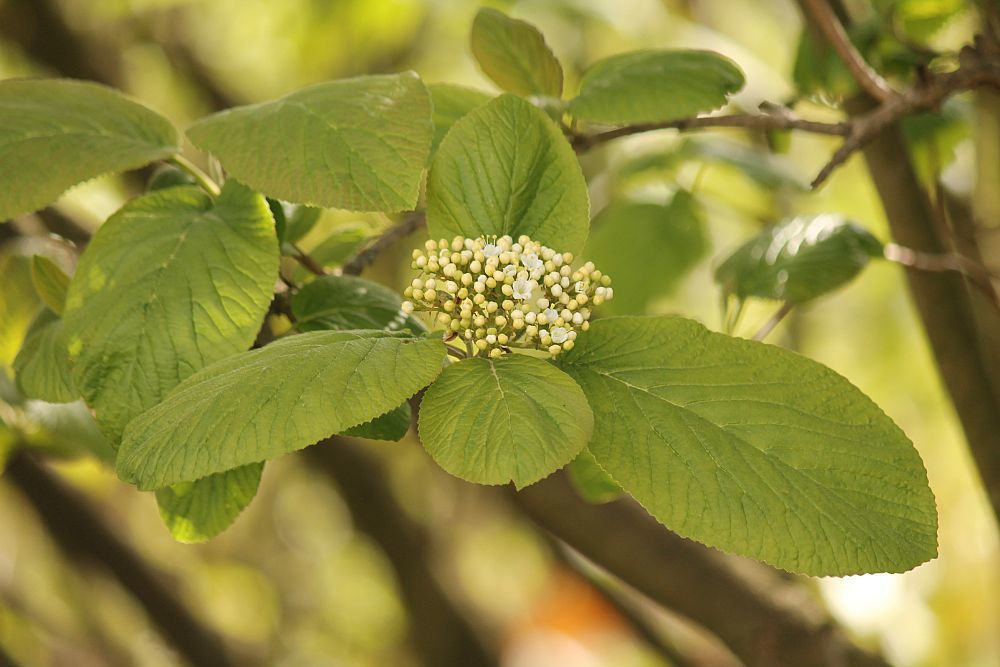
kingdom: Plantae
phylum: Tracheophyta
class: Magnoliopsida
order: Dipsacales
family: Viburnaceae
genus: Viburnum
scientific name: Viburnum lantana
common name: Wayfaring tree
